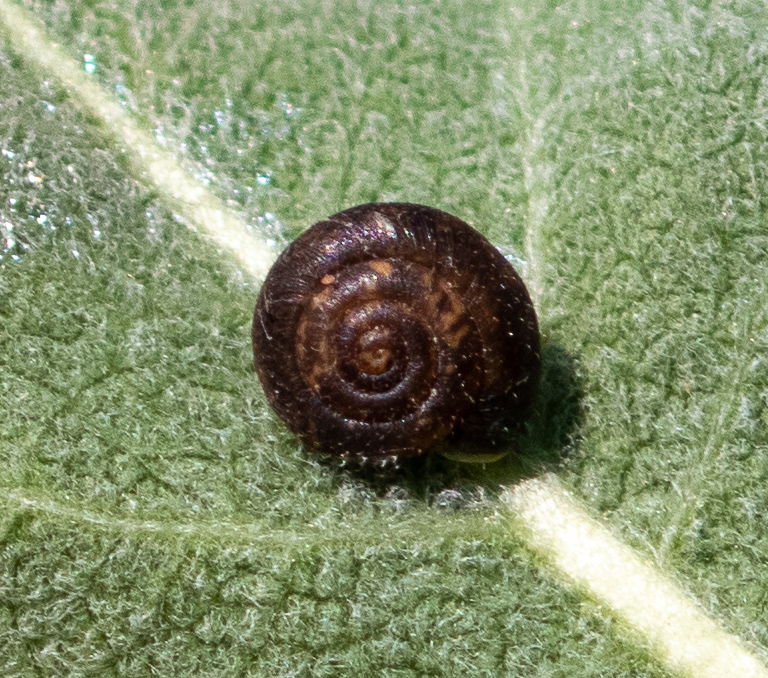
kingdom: Animalia
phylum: Mollusca
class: Gastropoda
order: Stylommatophora
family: Hygromiidae
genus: Trochulus
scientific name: Trochulus hispidus
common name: Hairy snail
